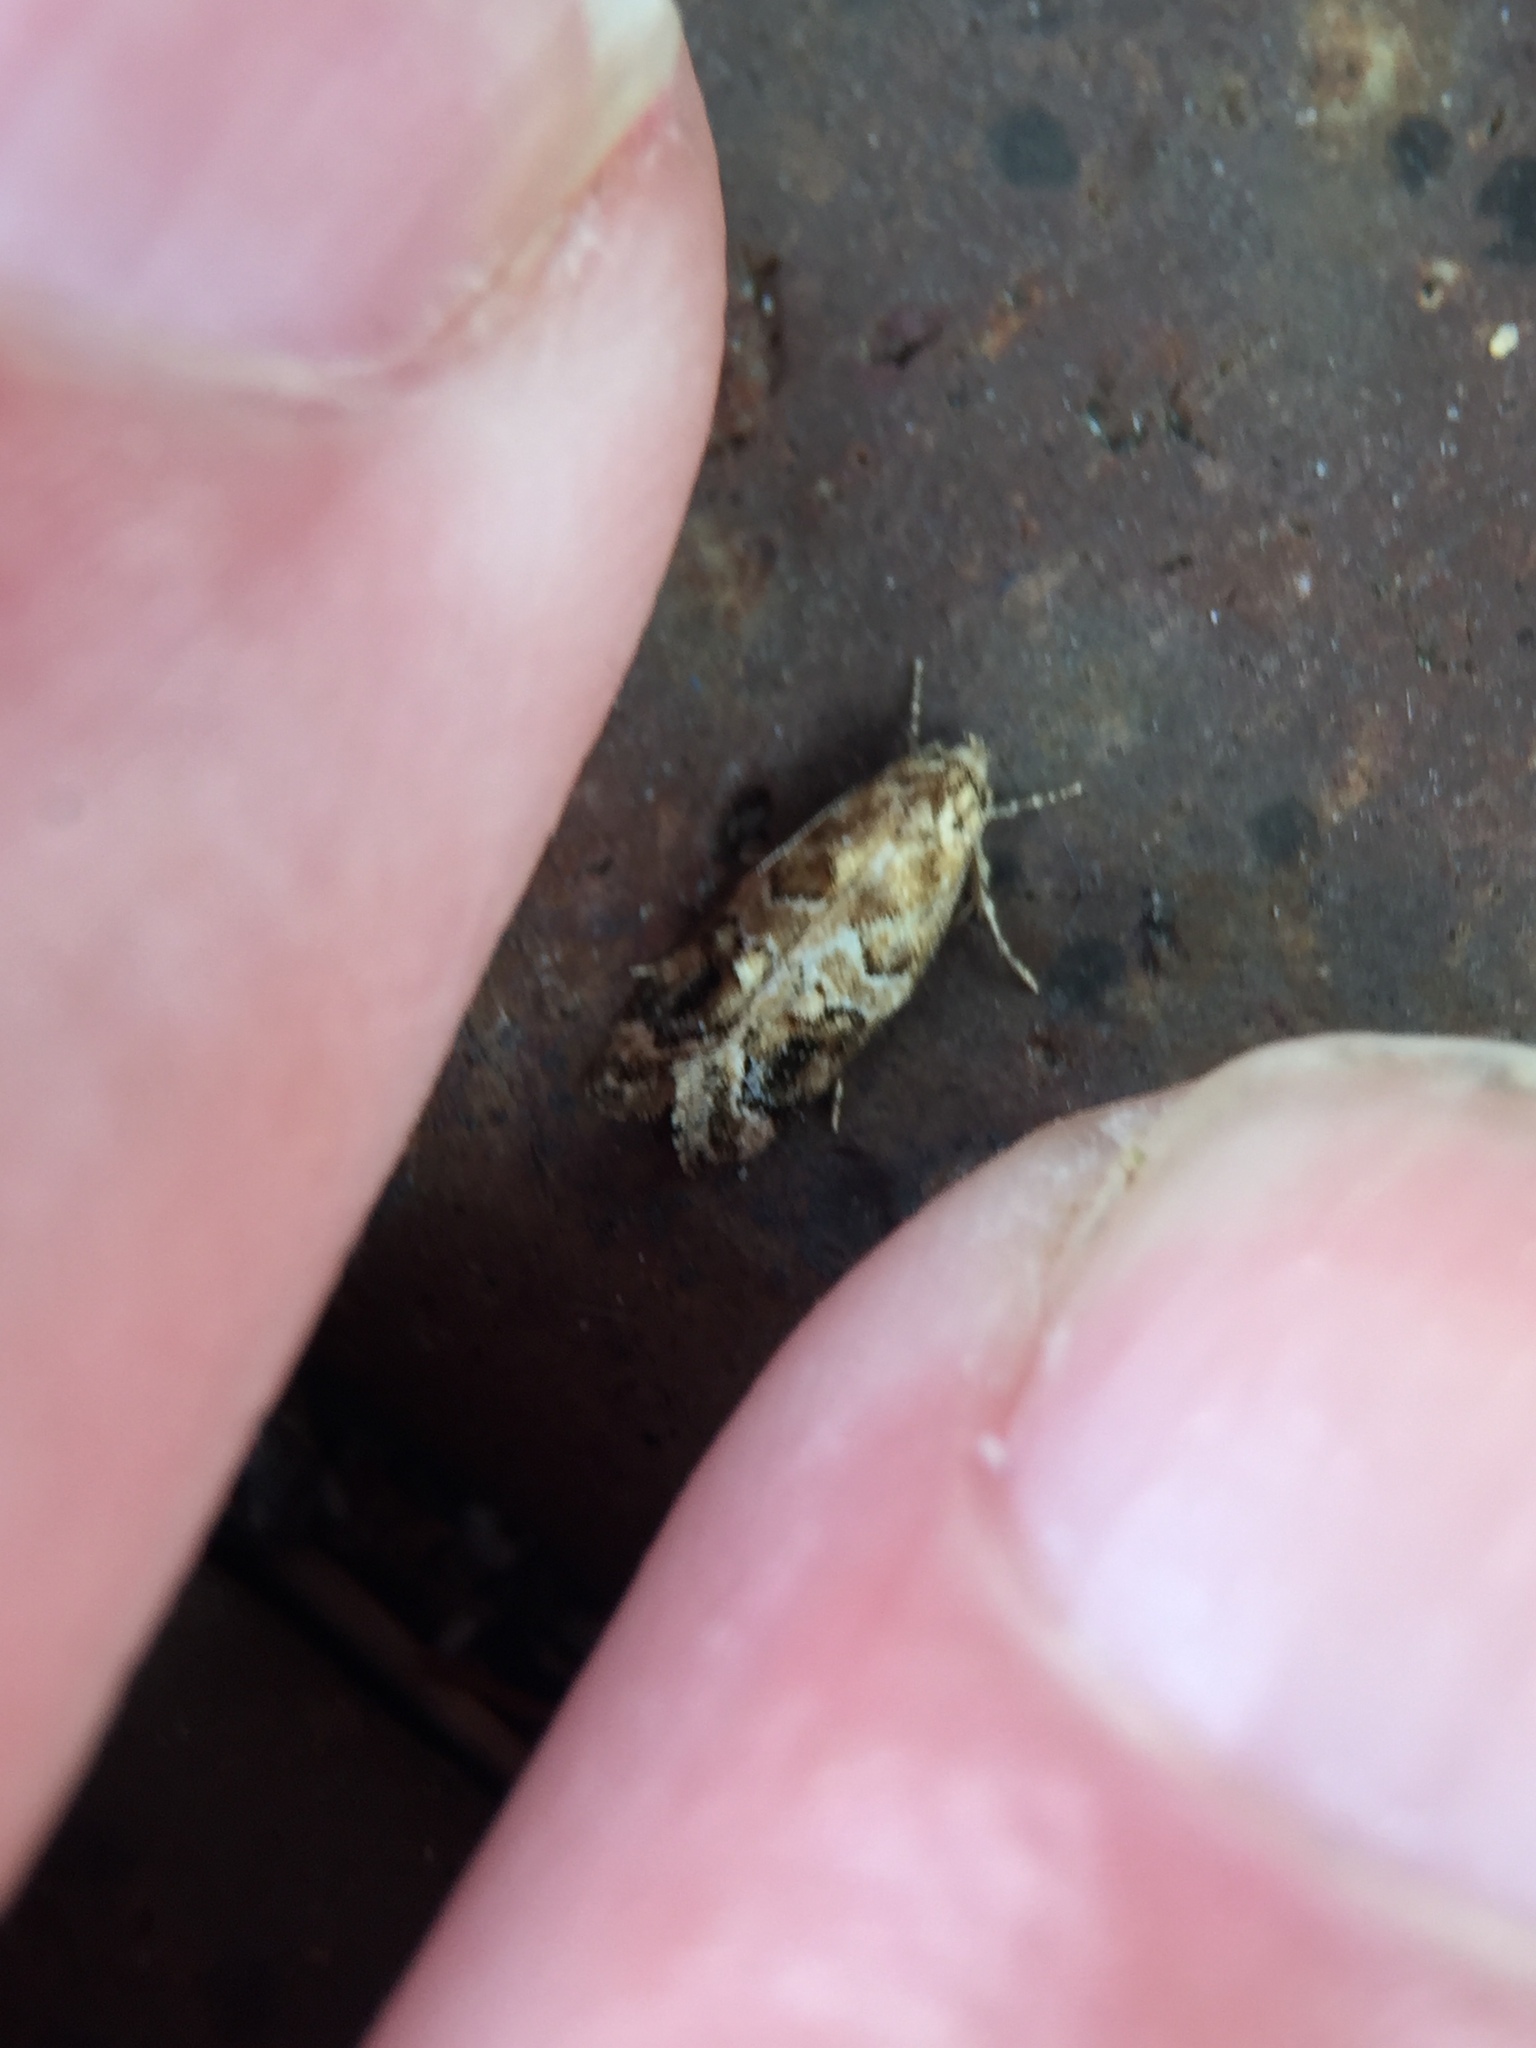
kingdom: Animalia
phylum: Arthropoda
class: Insecta
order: Lepidoptera
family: Oecophoridae
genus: Trachypepla
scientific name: Trachypepla aspidephora
